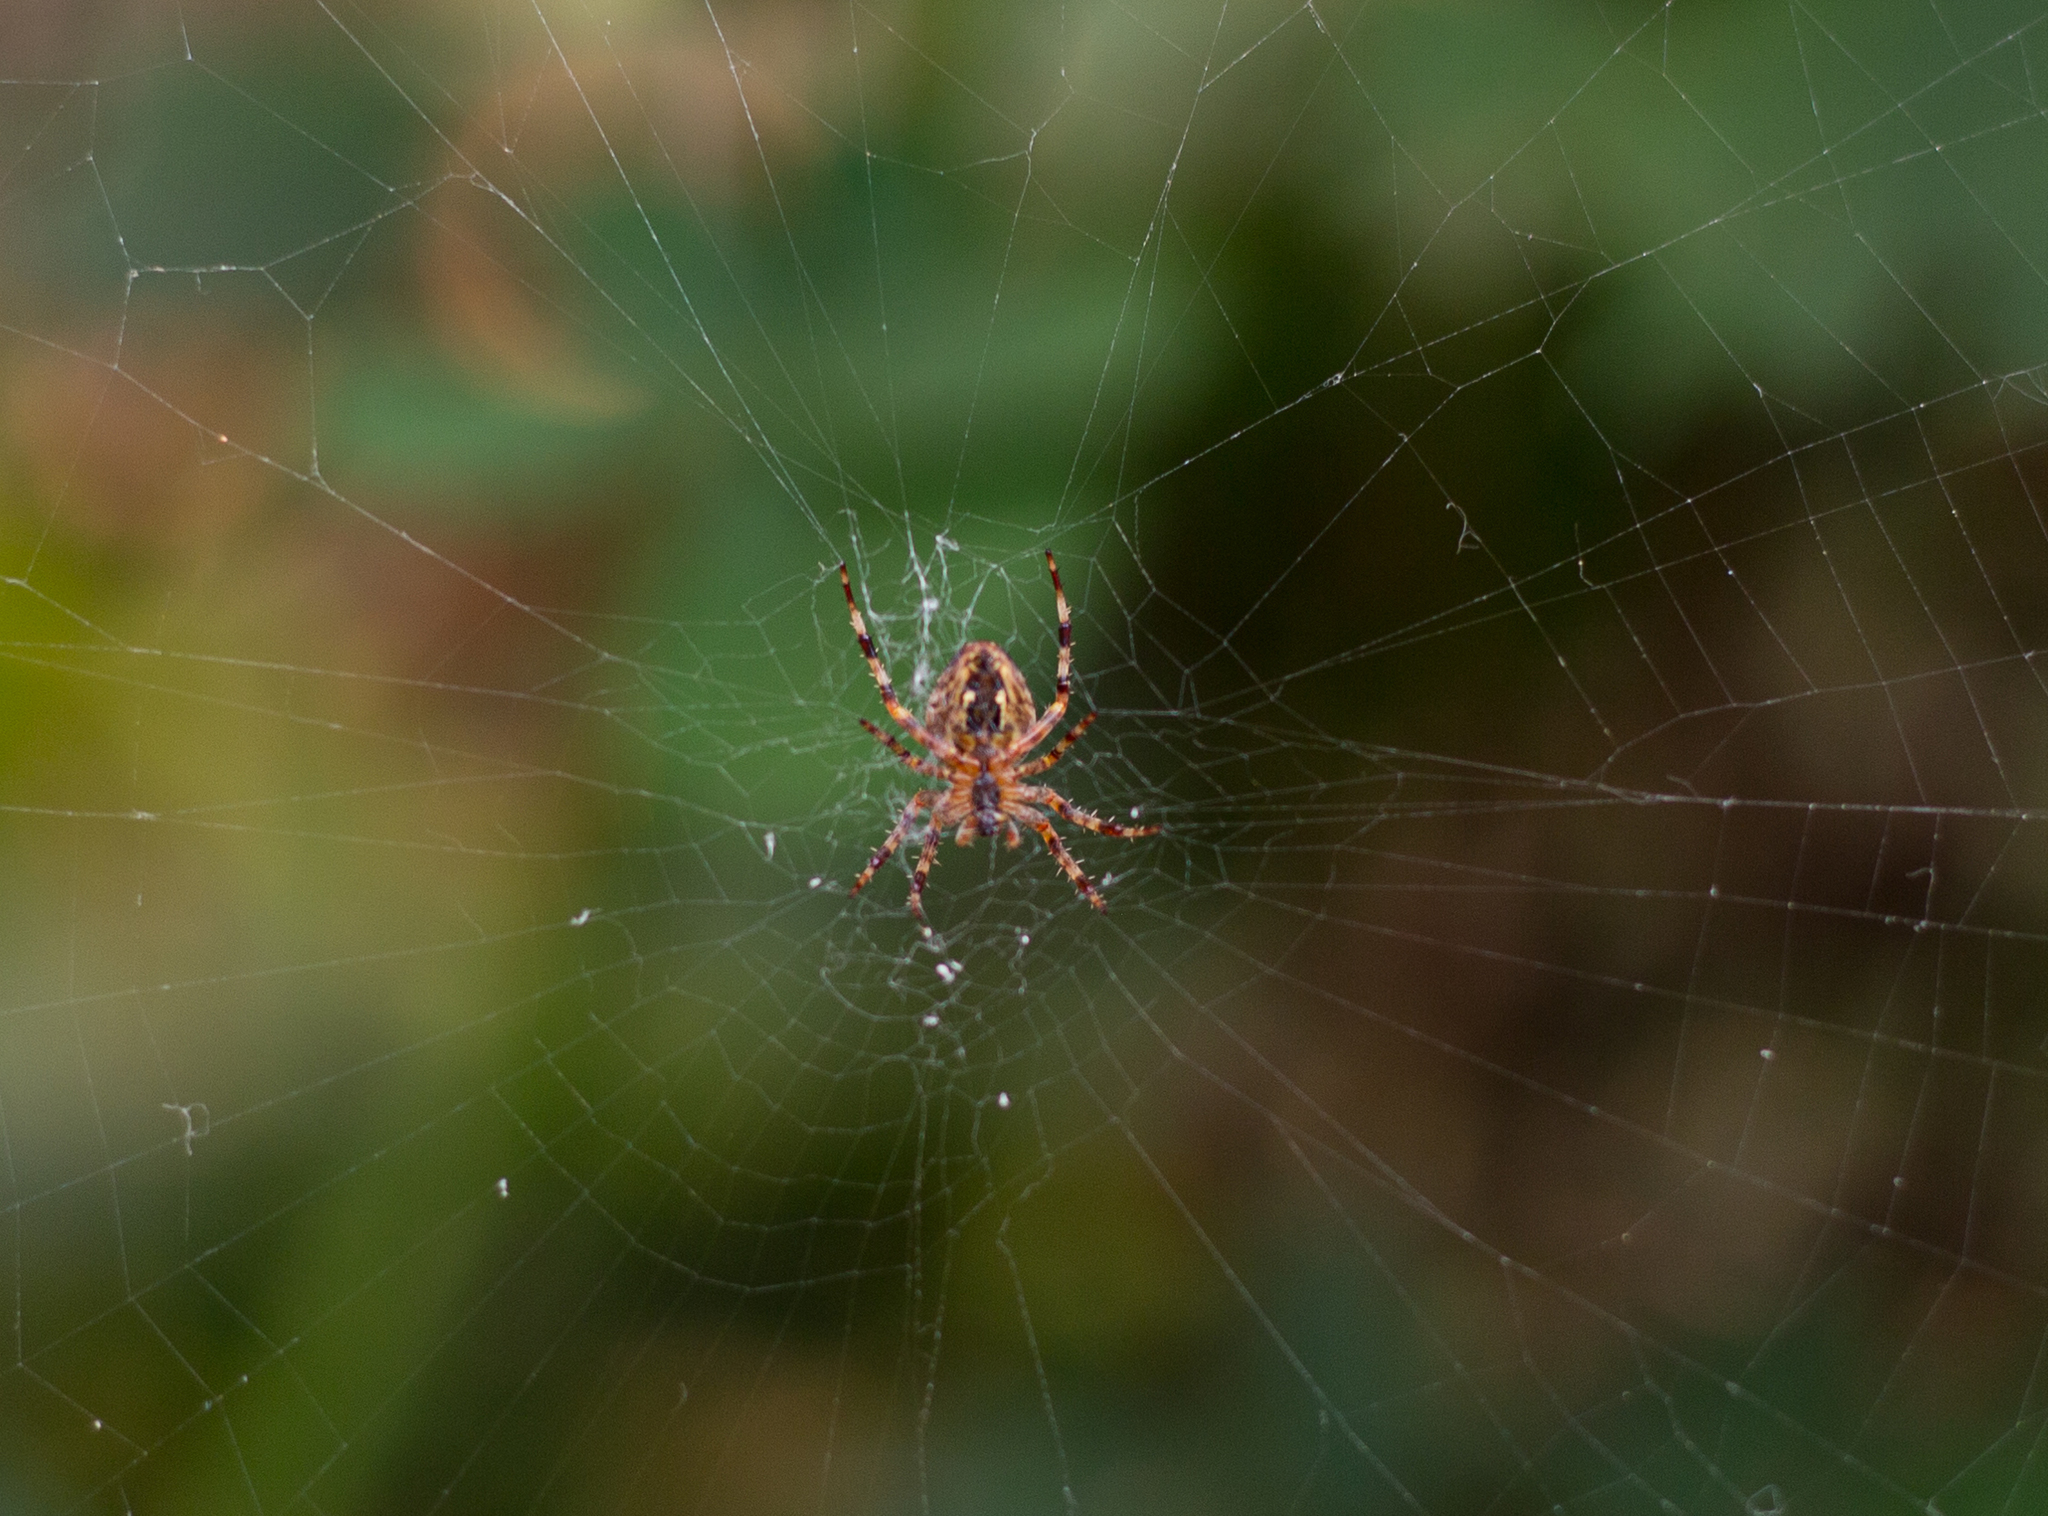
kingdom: Animalia
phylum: Arthropoda
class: Arachnida
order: Araneae
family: Araneidae
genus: Araneus
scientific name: Araneus diadematus
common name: Cross orbweaver
